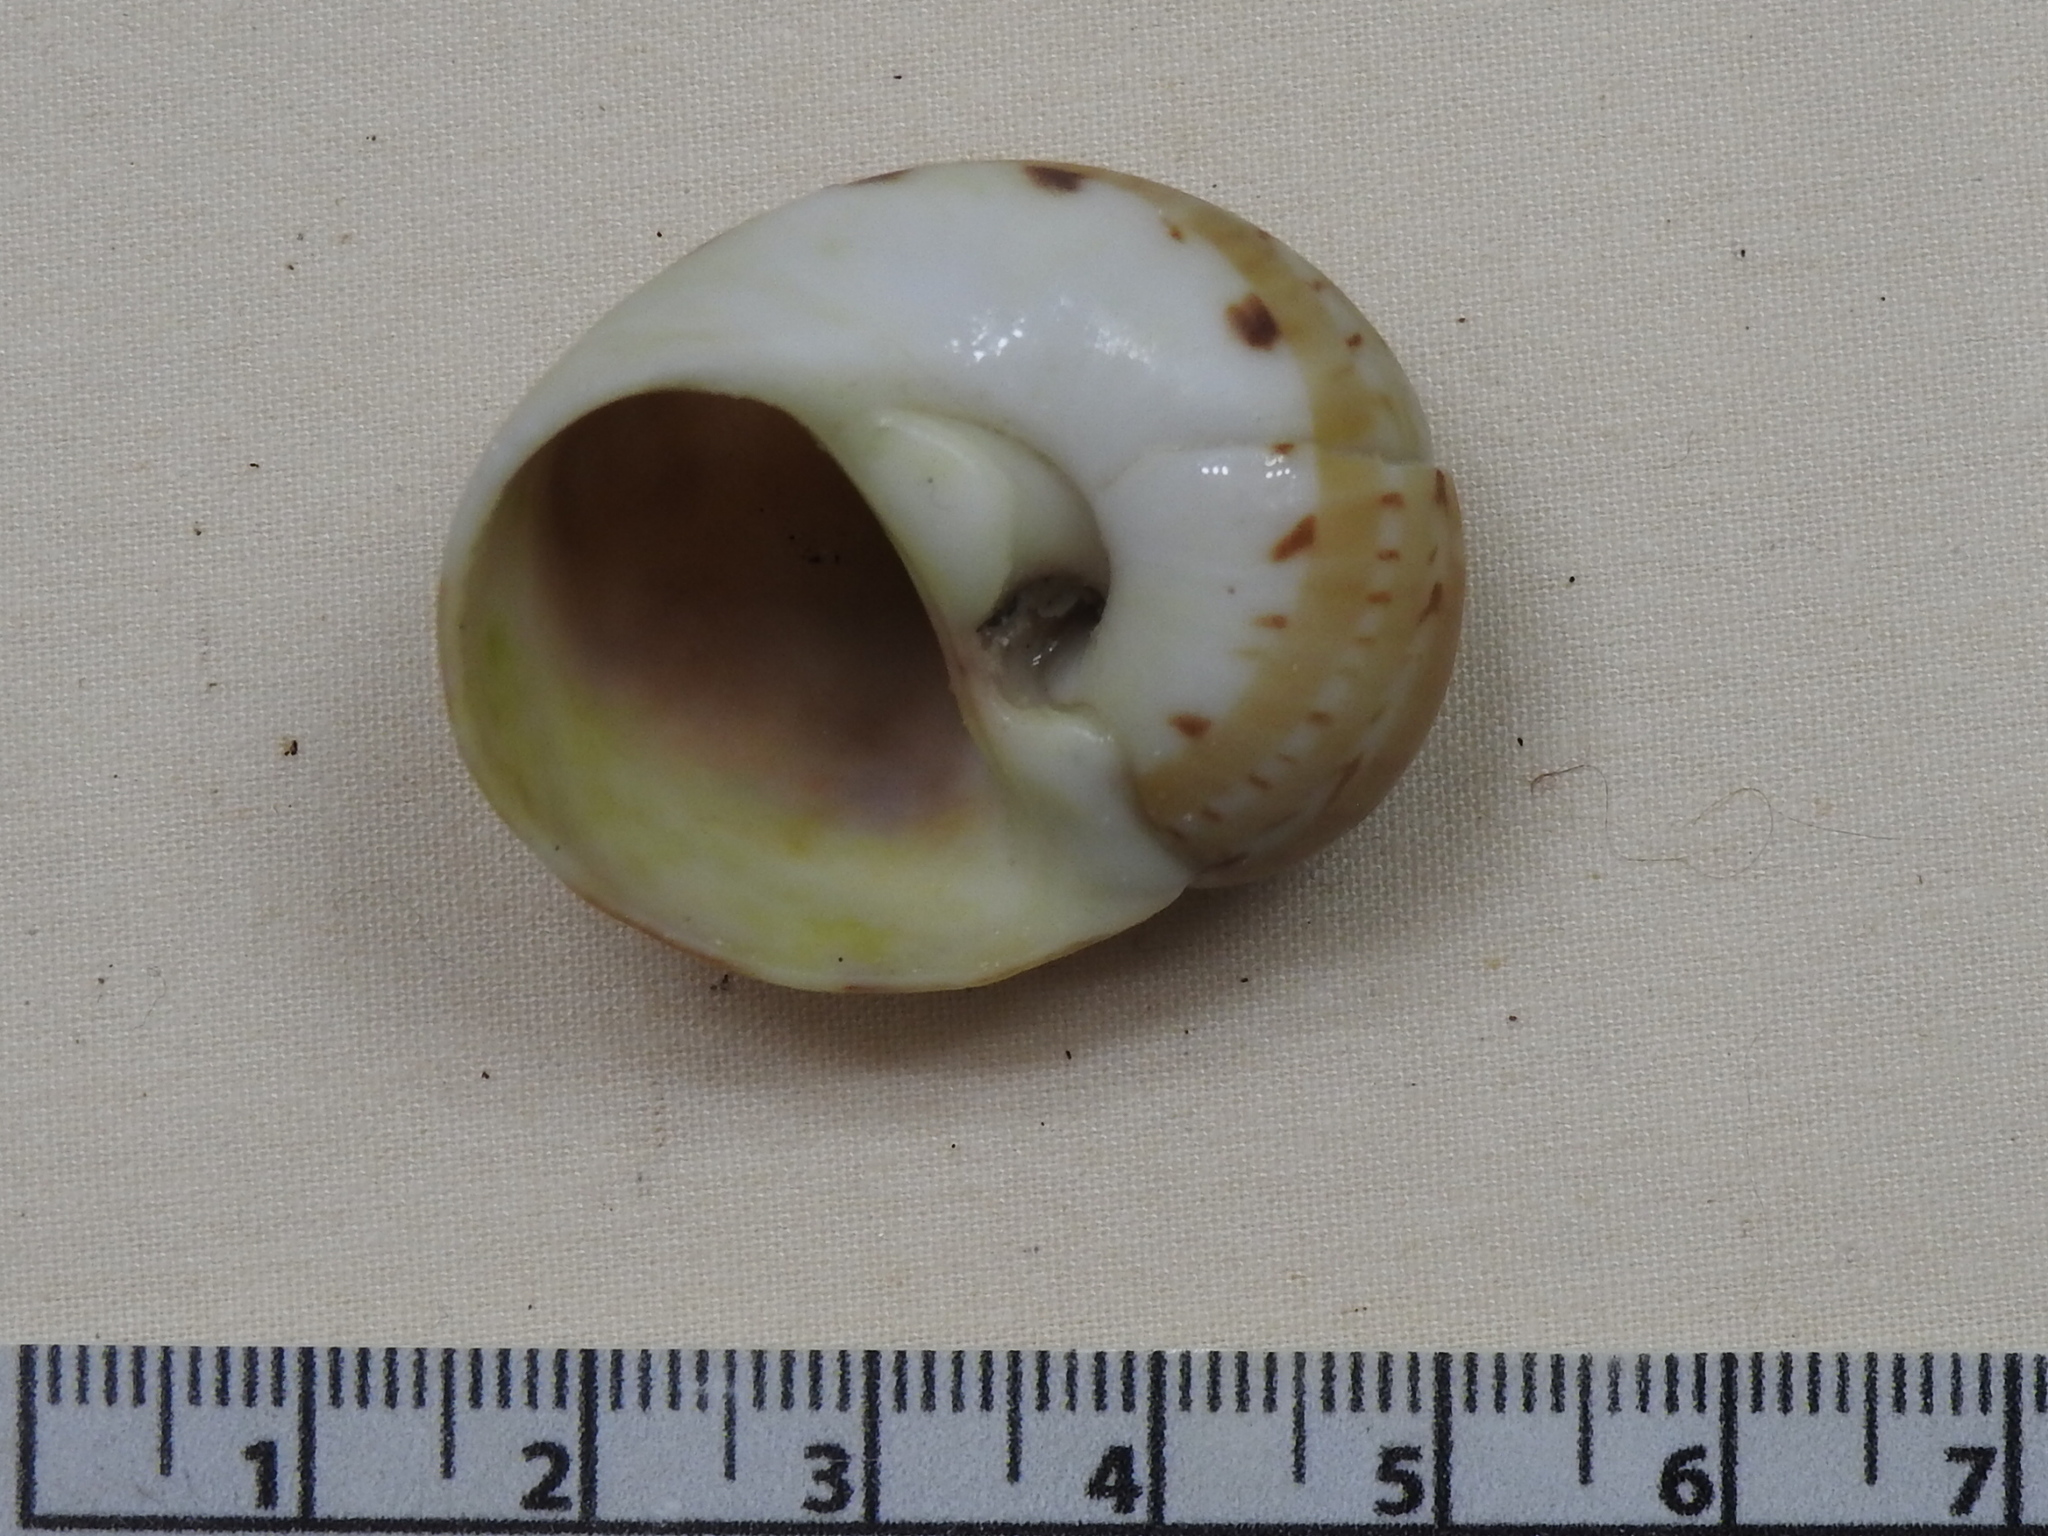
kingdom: Animalia
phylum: Mollusca
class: Gastropoda
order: Littorinimorpha
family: Naticidae
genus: Naticarius
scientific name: Naticarius canrena
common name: Colorful moonsnail
